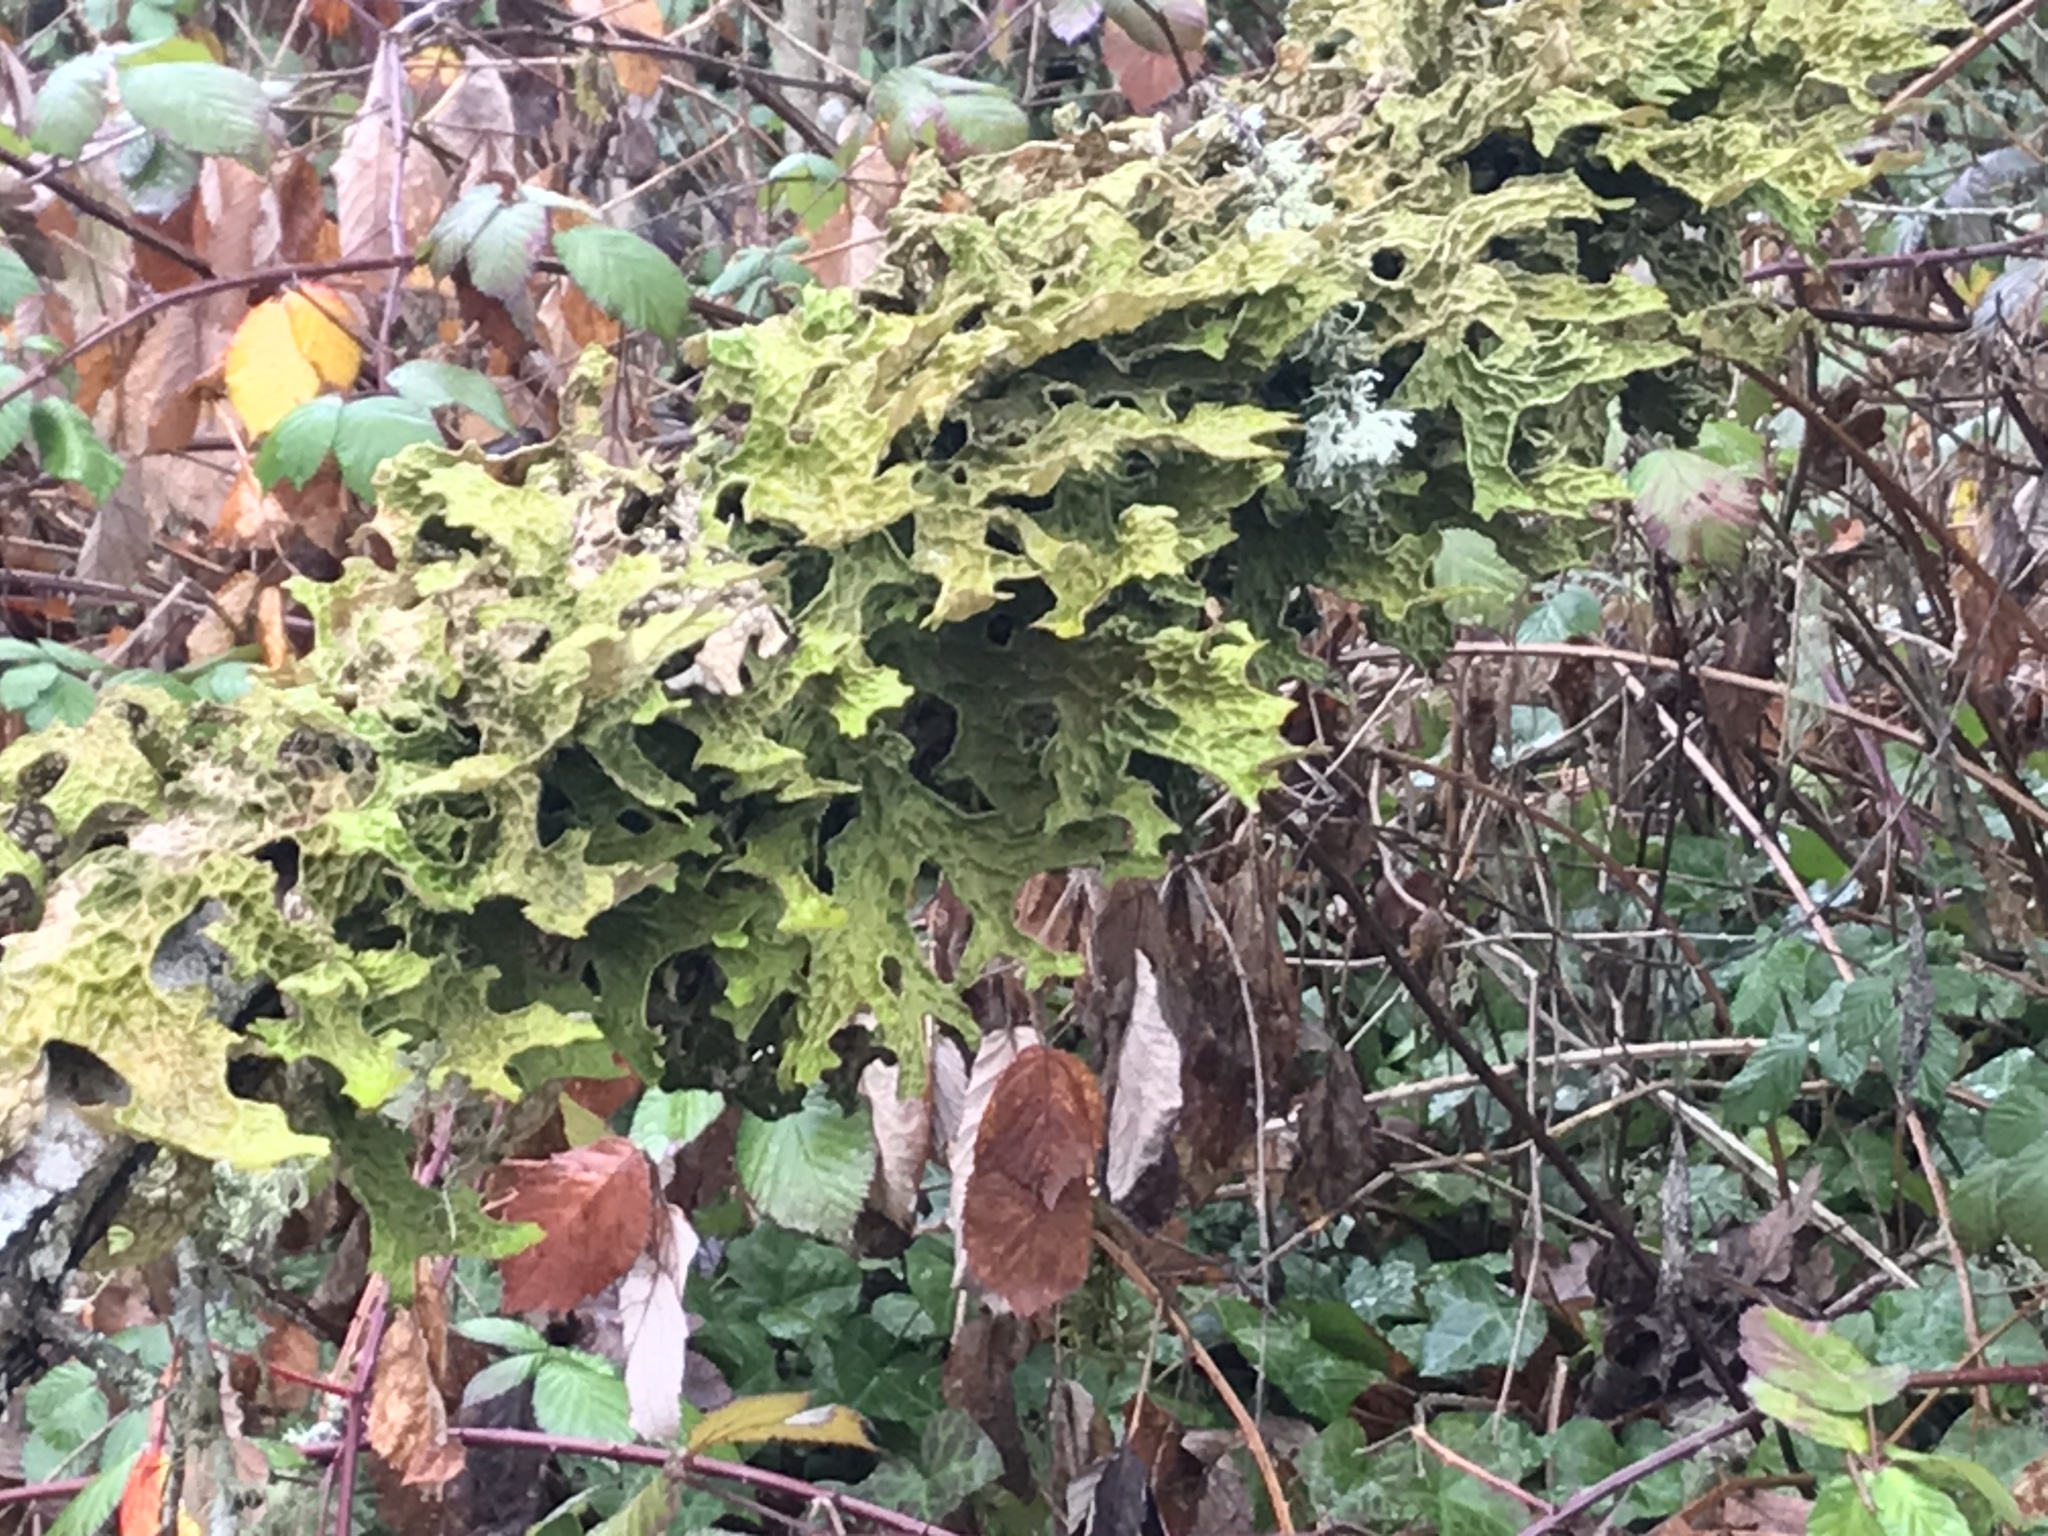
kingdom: Fungi
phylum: Ascomycota
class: Lecanoromycetes
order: Peltigerales
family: Lobariaceae
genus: Lobaria
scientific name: Lobaria pulmonaria
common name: Lungwort
